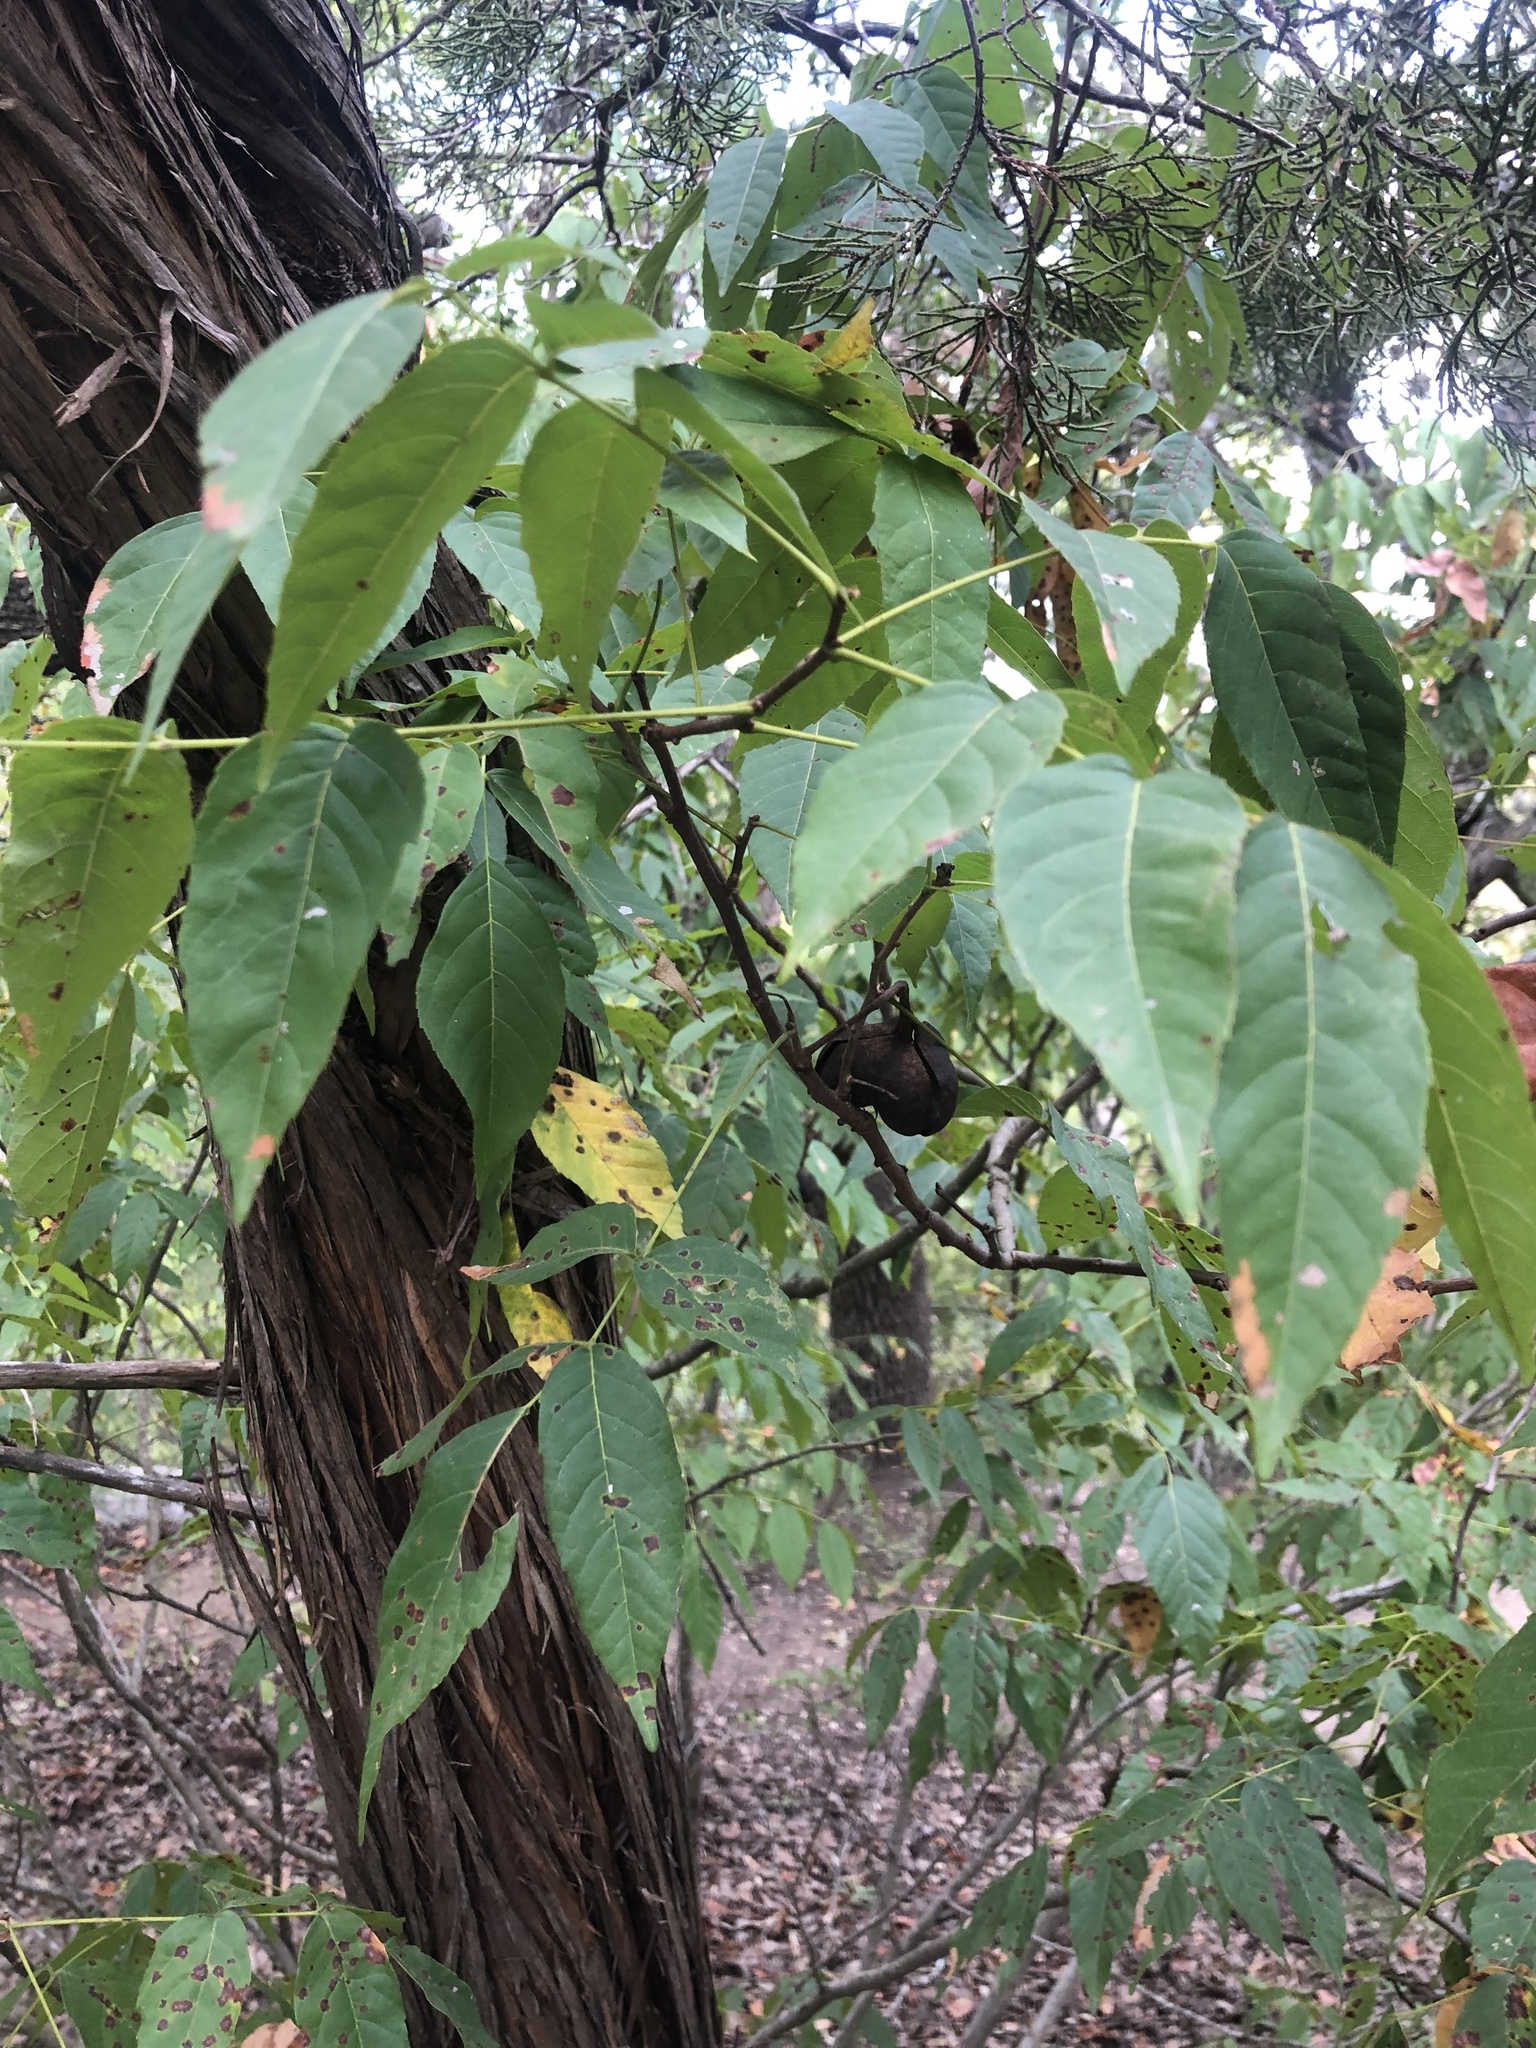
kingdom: Plantae
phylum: Tracheophyta
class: Magnoliopsida
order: Sapindales
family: Sapindaceae
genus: Ungnadia
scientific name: Ungnadia speciosa
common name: Texas-buckeye
